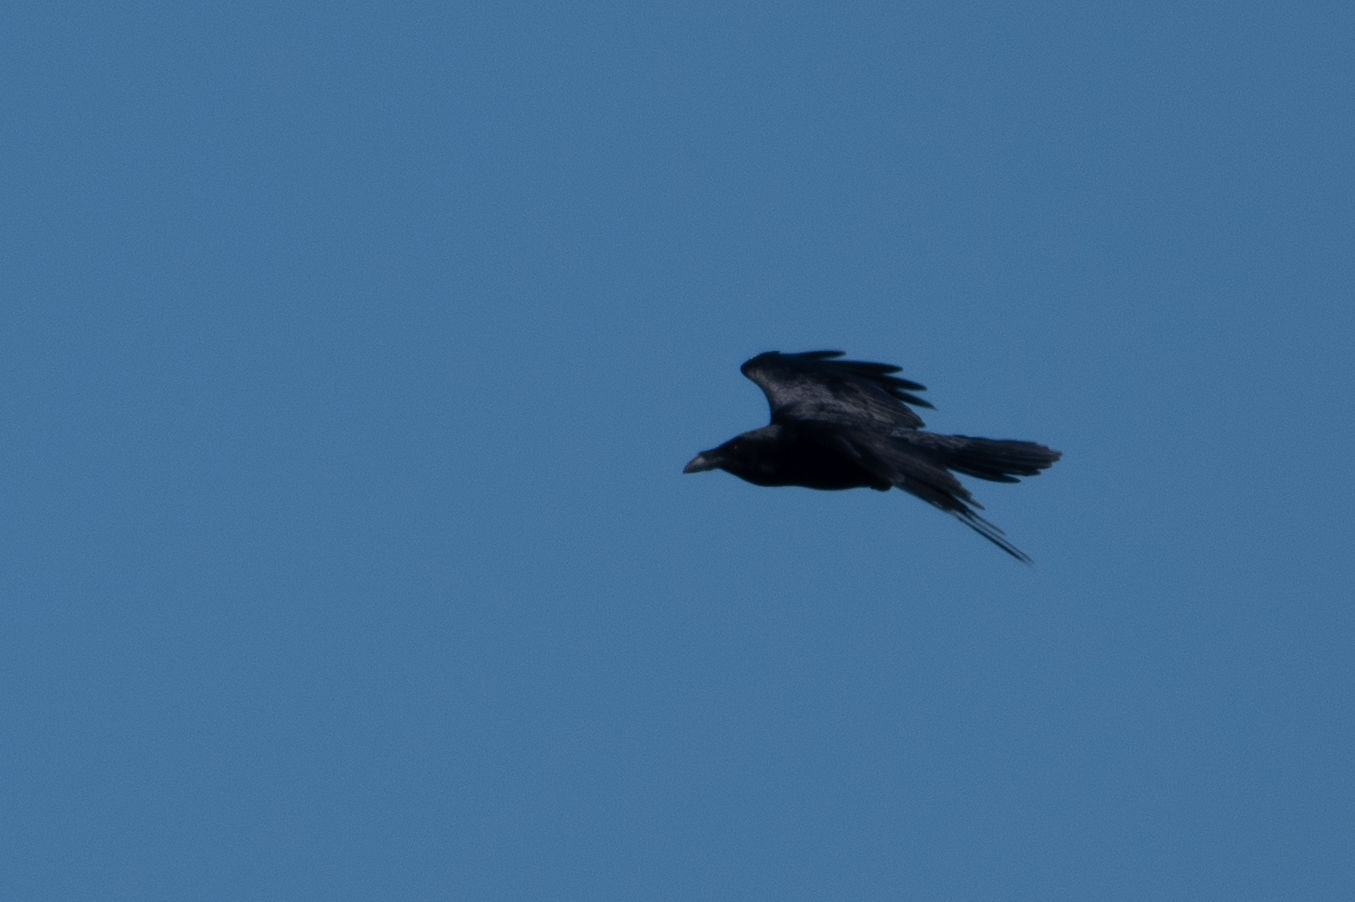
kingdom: Animalia
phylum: Chordata
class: Aves
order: Passeriformes
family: Corvidae
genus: Corvus
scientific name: Corvus corax
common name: Common raven
